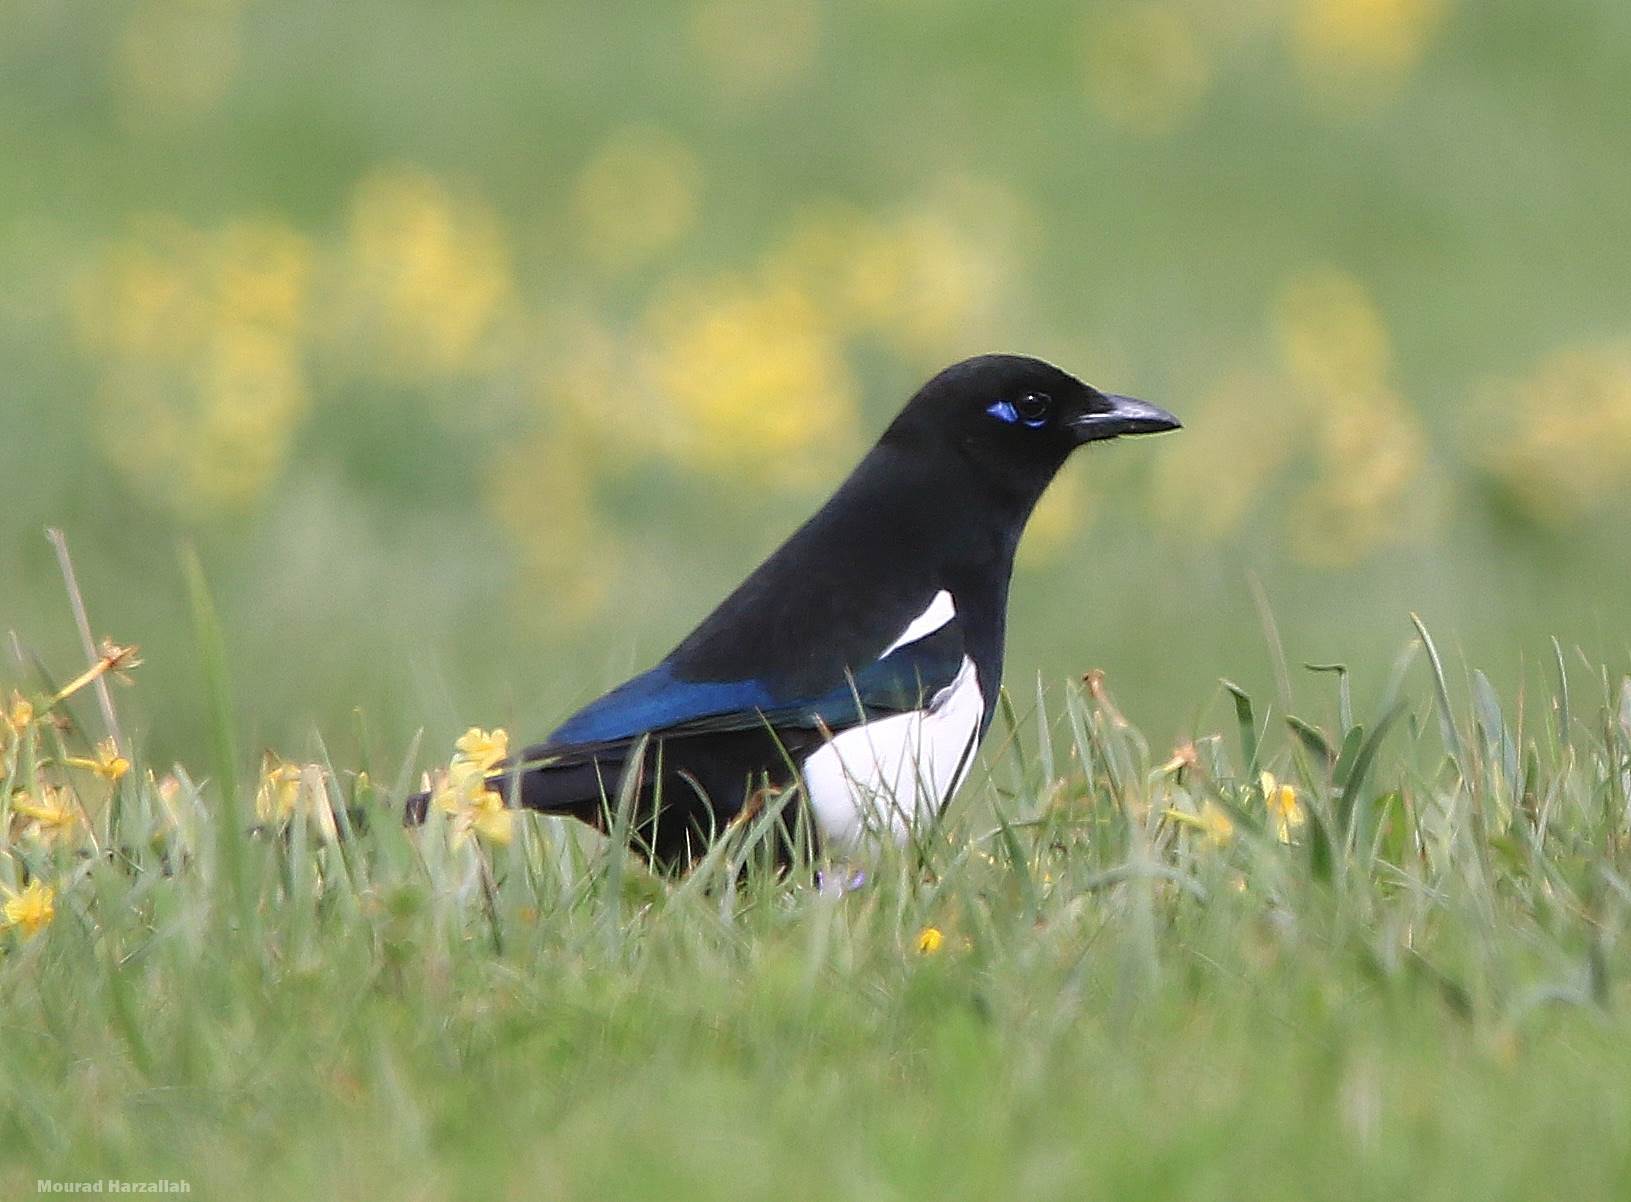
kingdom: Animalia
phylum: Chordata
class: Aves
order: Passeriformes
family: Corvidae
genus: Pica
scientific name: Pica mauritanica
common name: Maghreb magpie
